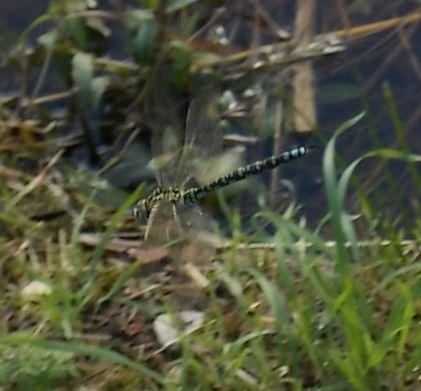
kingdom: Animalia
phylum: Arthropoda
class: Insecta
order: Odonata
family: Aeshnidae
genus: Aeshna
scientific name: Aeshna cyanea
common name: Southern hawker
